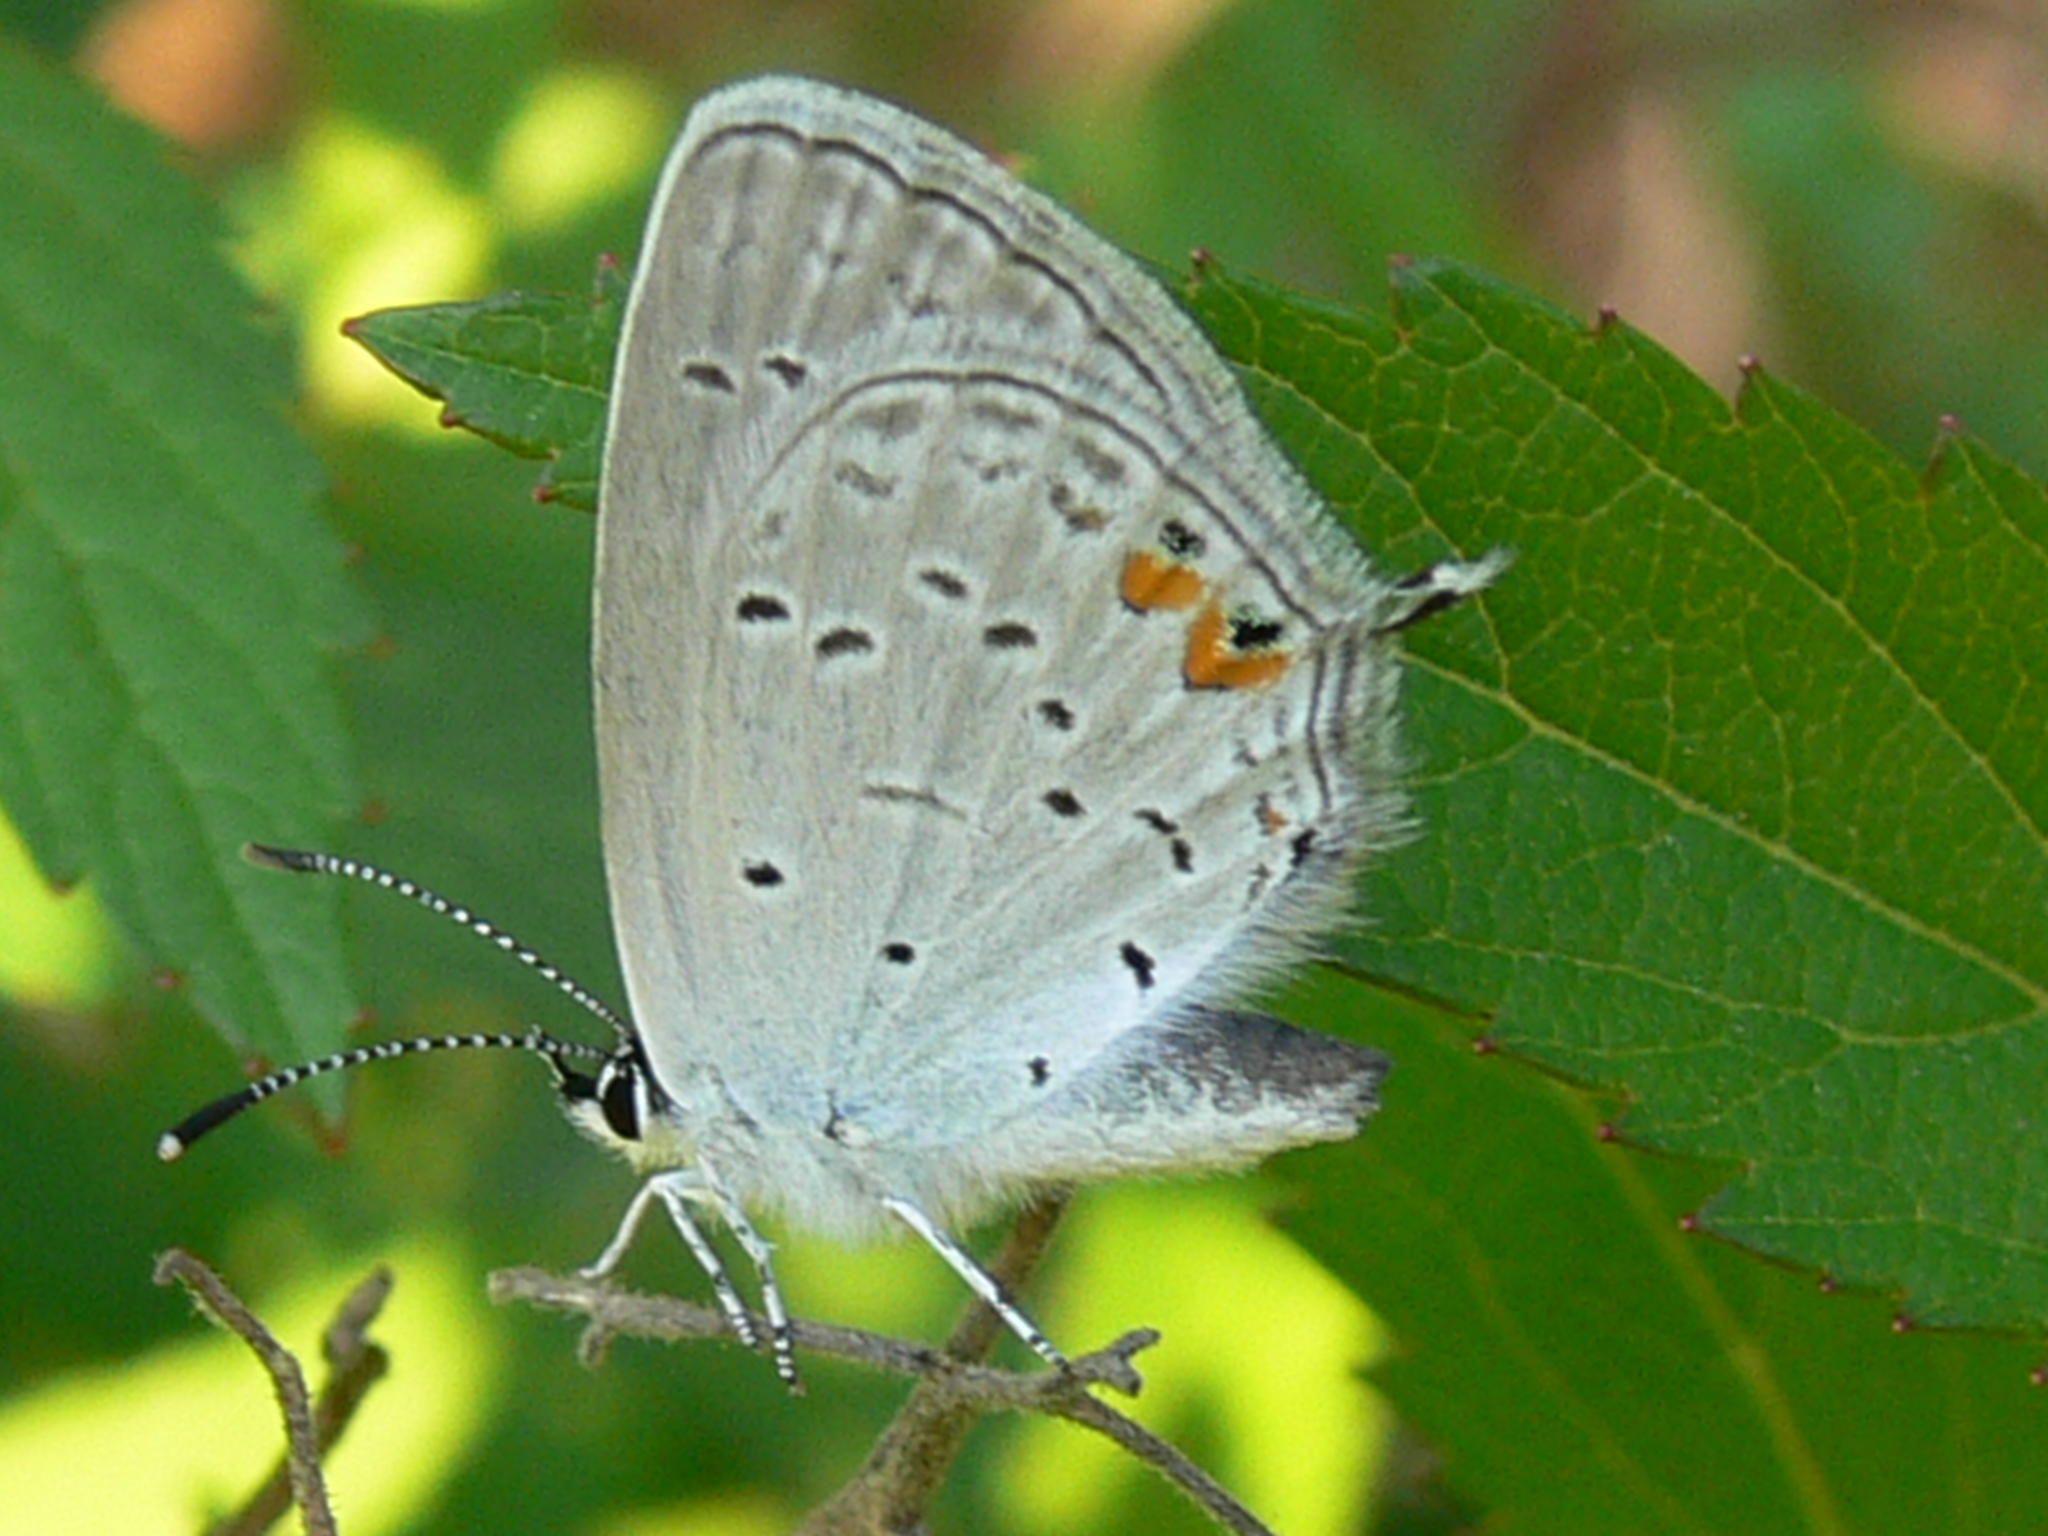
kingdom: Animalia
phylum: Arthropoda
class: Insecta
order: Lepidoptera
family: Lycaenidae
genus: Elkalyce
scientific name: Elkalyce comyntas
